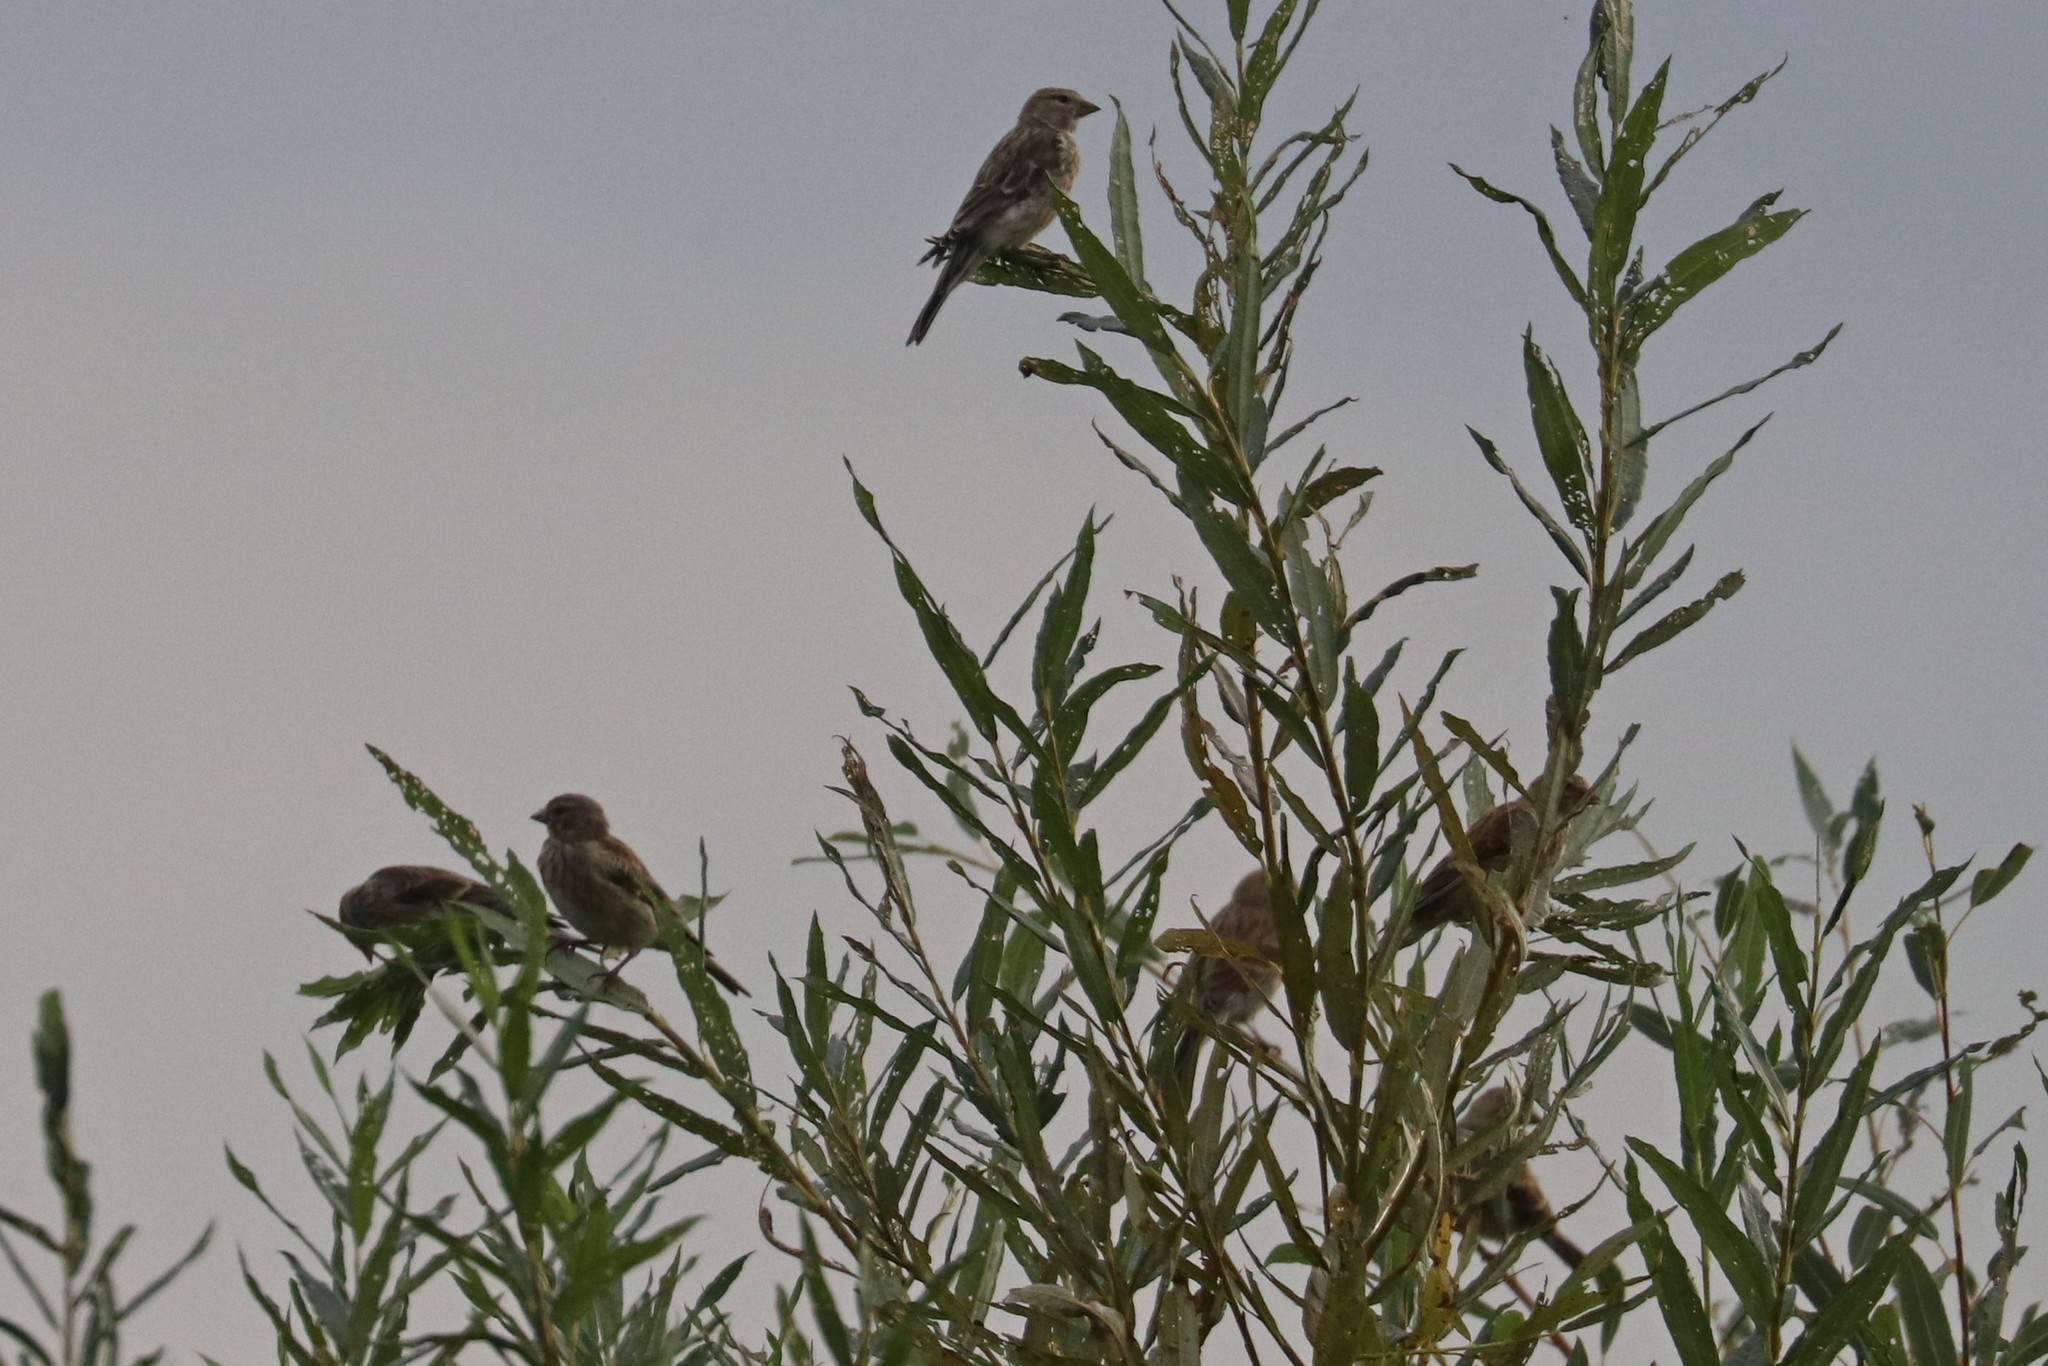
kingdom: Animalia
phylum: Chordata
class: Aves
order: Passeriformes
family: Fringillidae
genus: Linaria
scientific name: Linaria cannabina
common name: Common linnet
